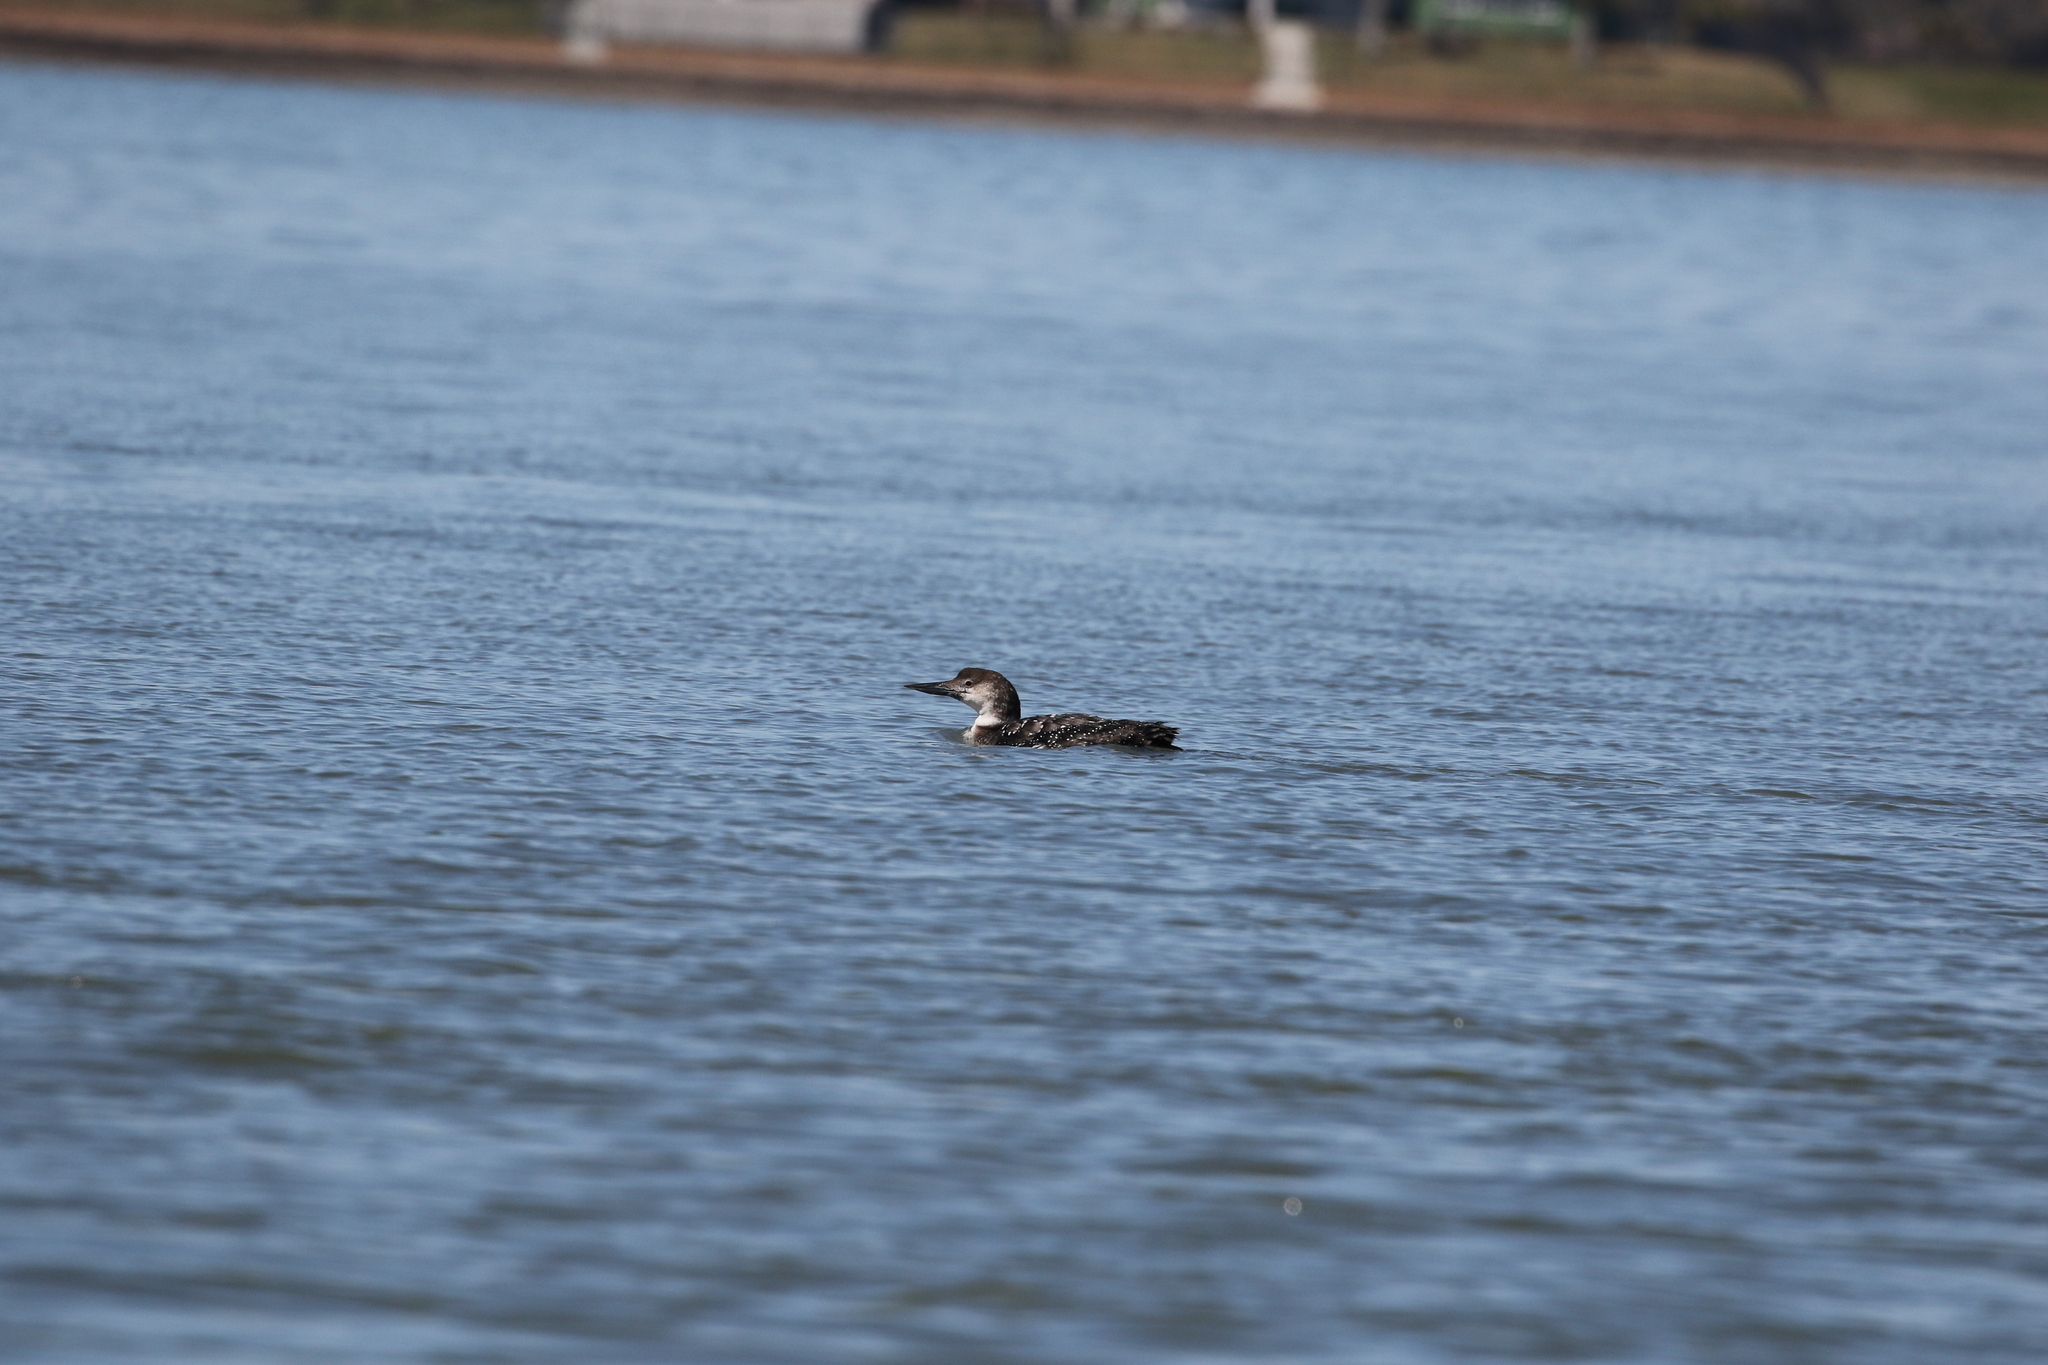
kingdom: Animalia
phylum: Chordata
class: Aves
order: Gaviiformes
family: Gaviidae
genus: Gavia
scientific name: Gavia immer
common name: Common loon
